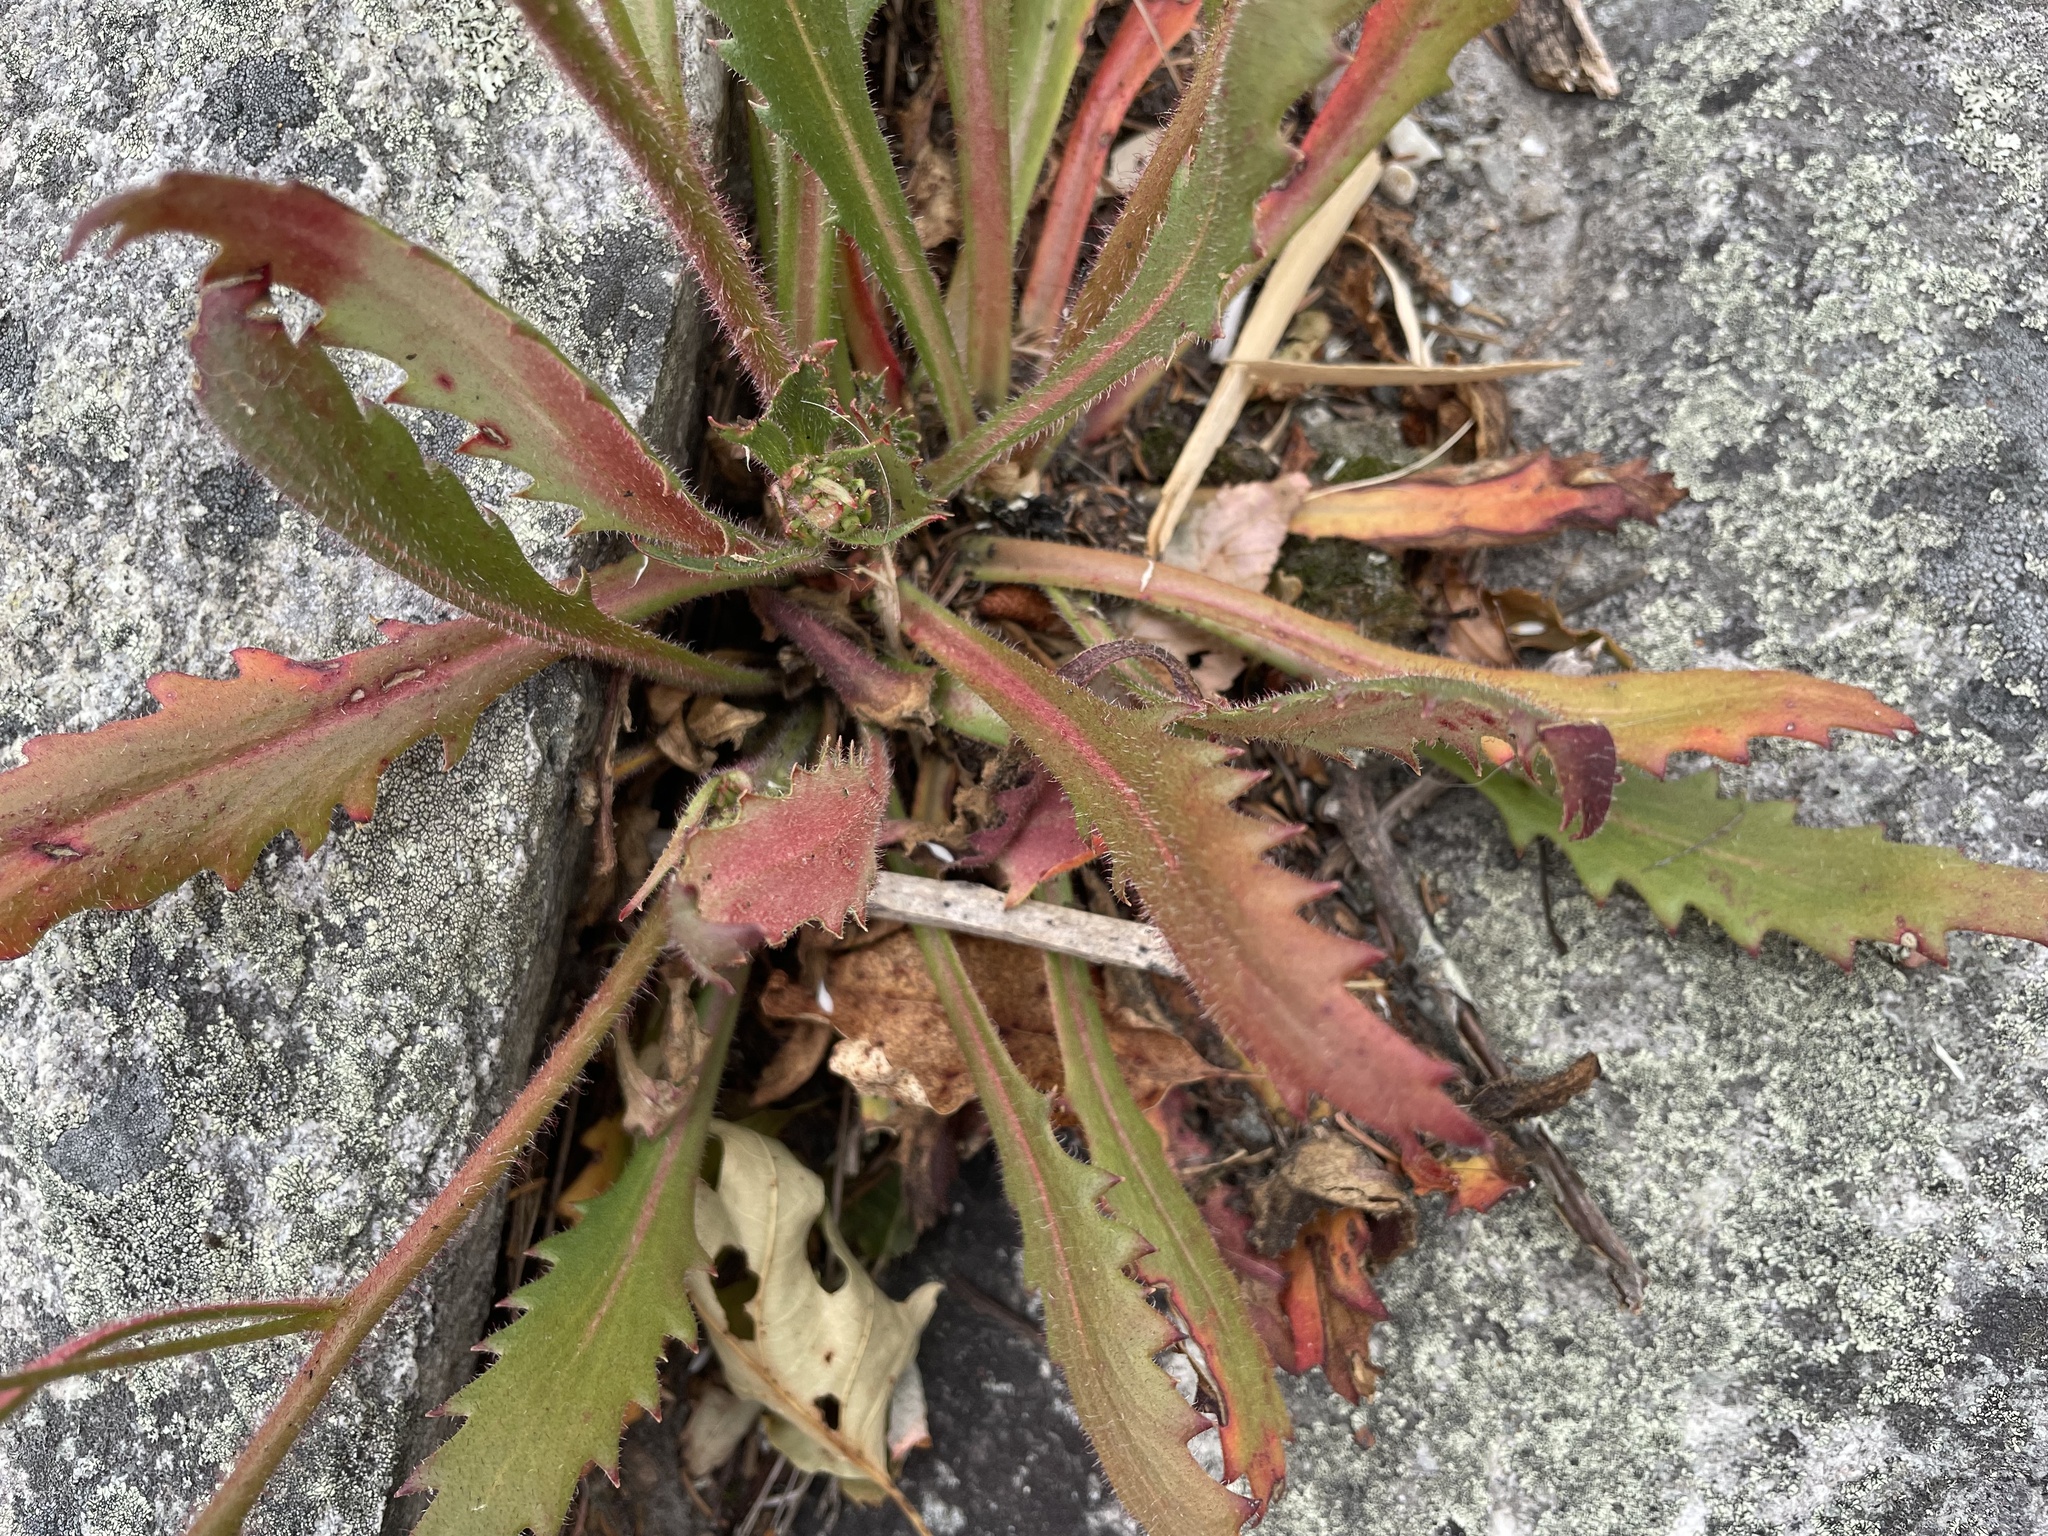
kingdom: Plantae
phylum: Tracheophyta
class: Magnoliopsida
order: Saxifragales
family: Saxifragaceae
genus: Micranthes
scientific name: Micranthes petiolaris
